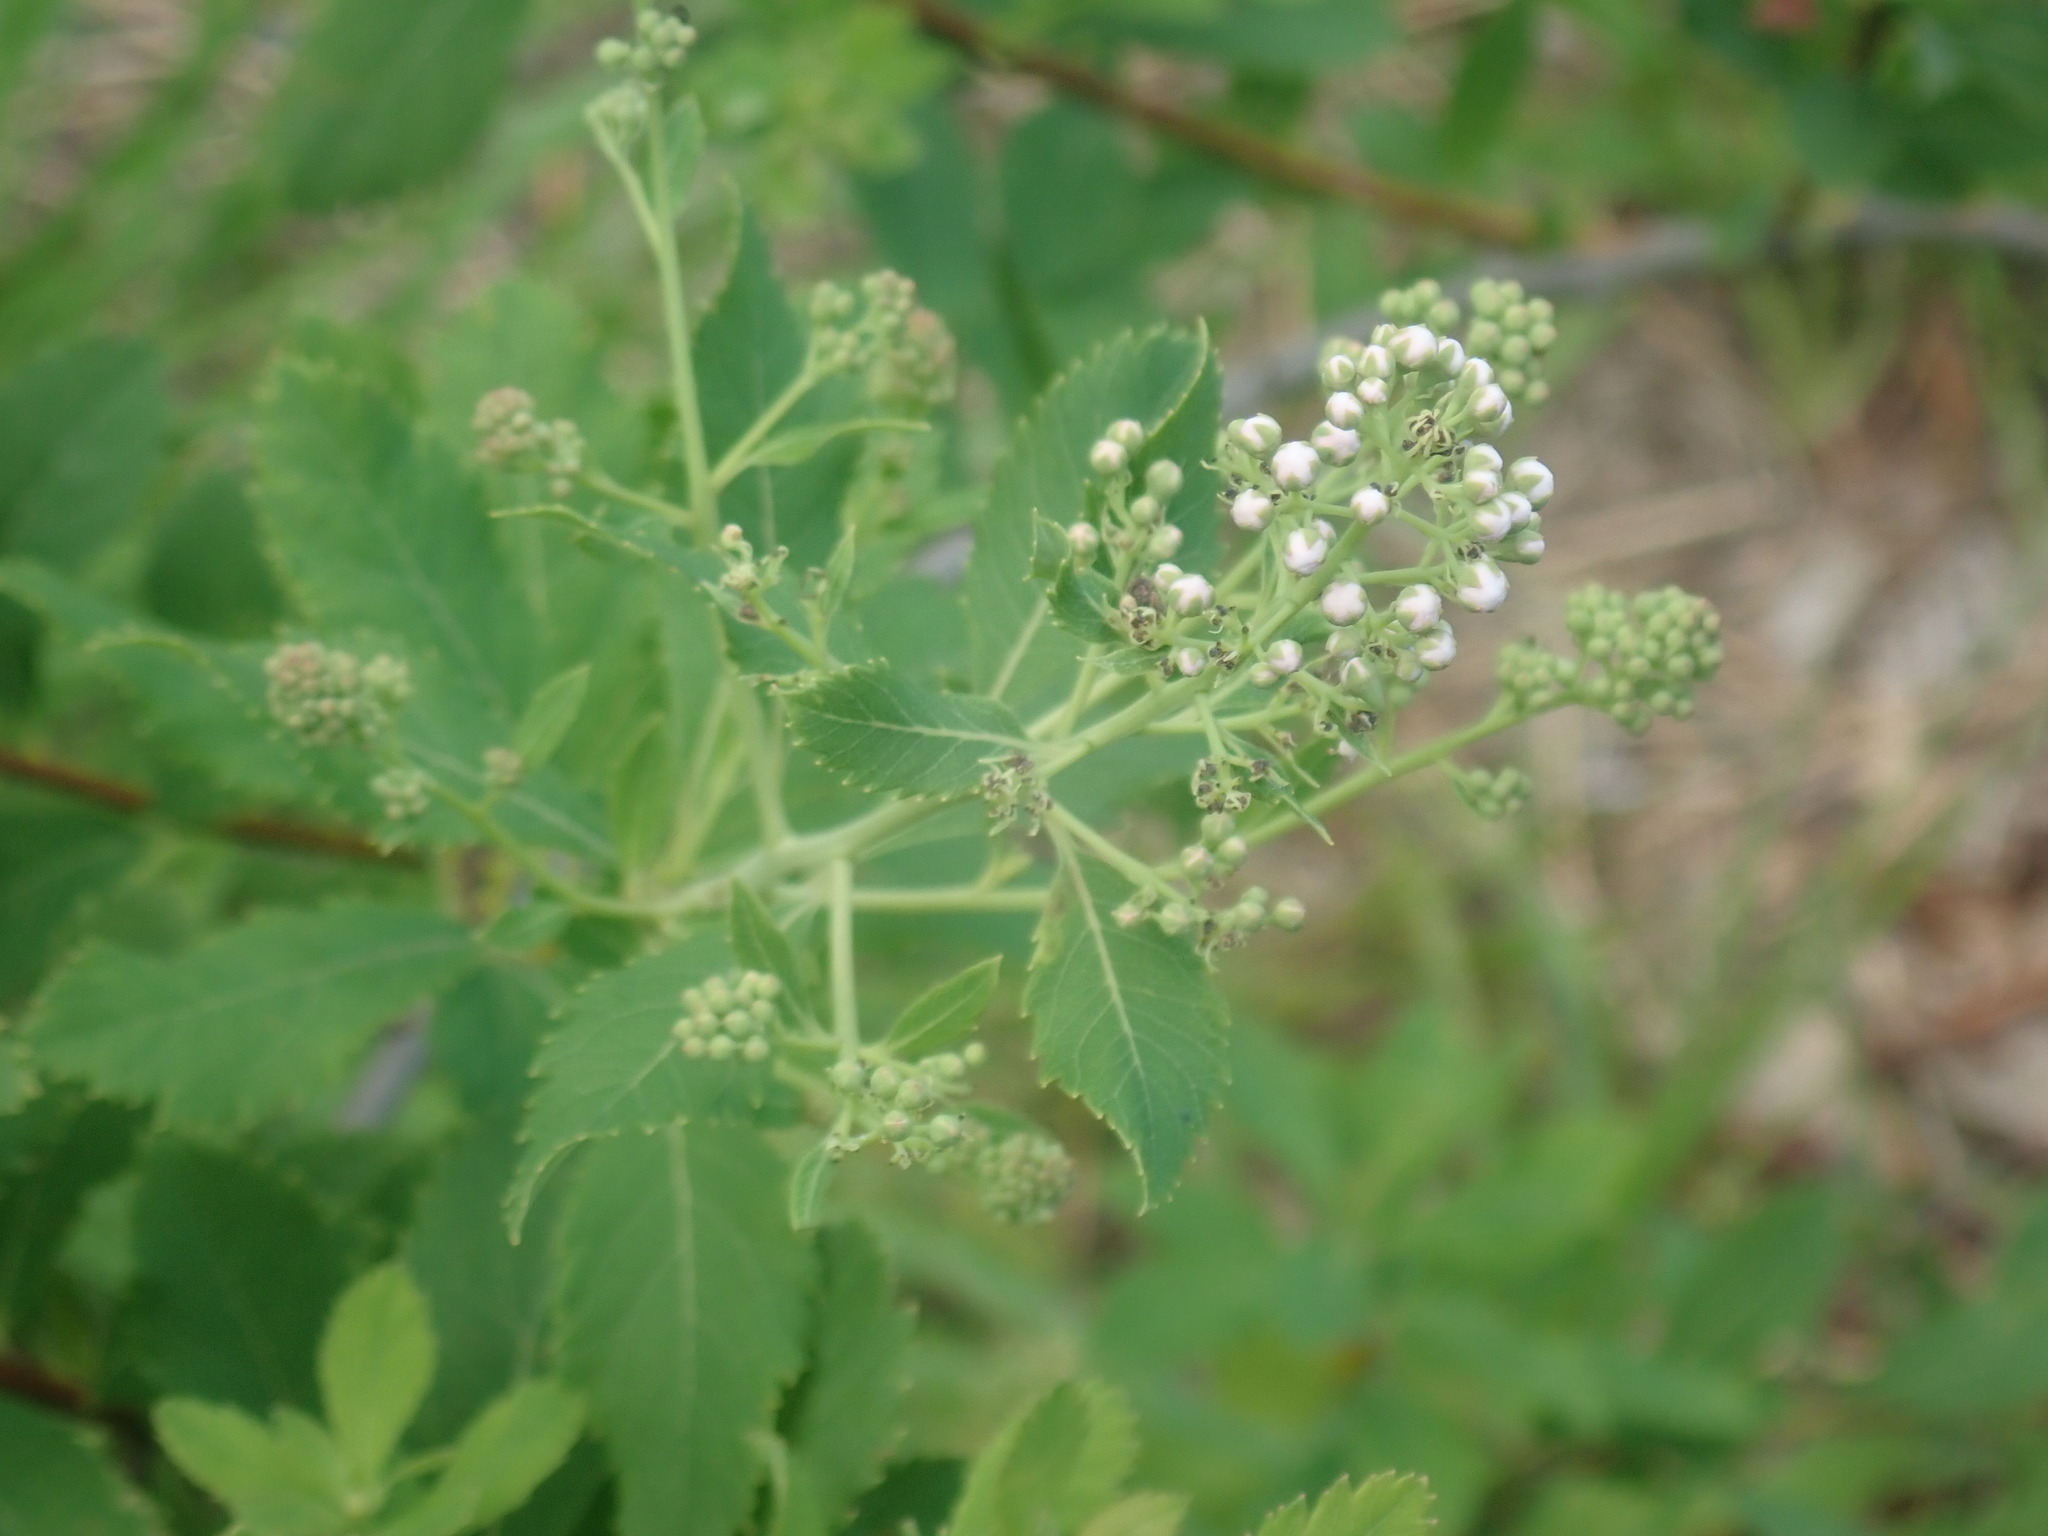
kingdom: Plantae
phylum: Tracheophyta
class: Magnoliopsida
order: Rosales
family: Rosaceae
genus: Spiraea
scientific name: Spiraea alba
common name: Pale bridewort
